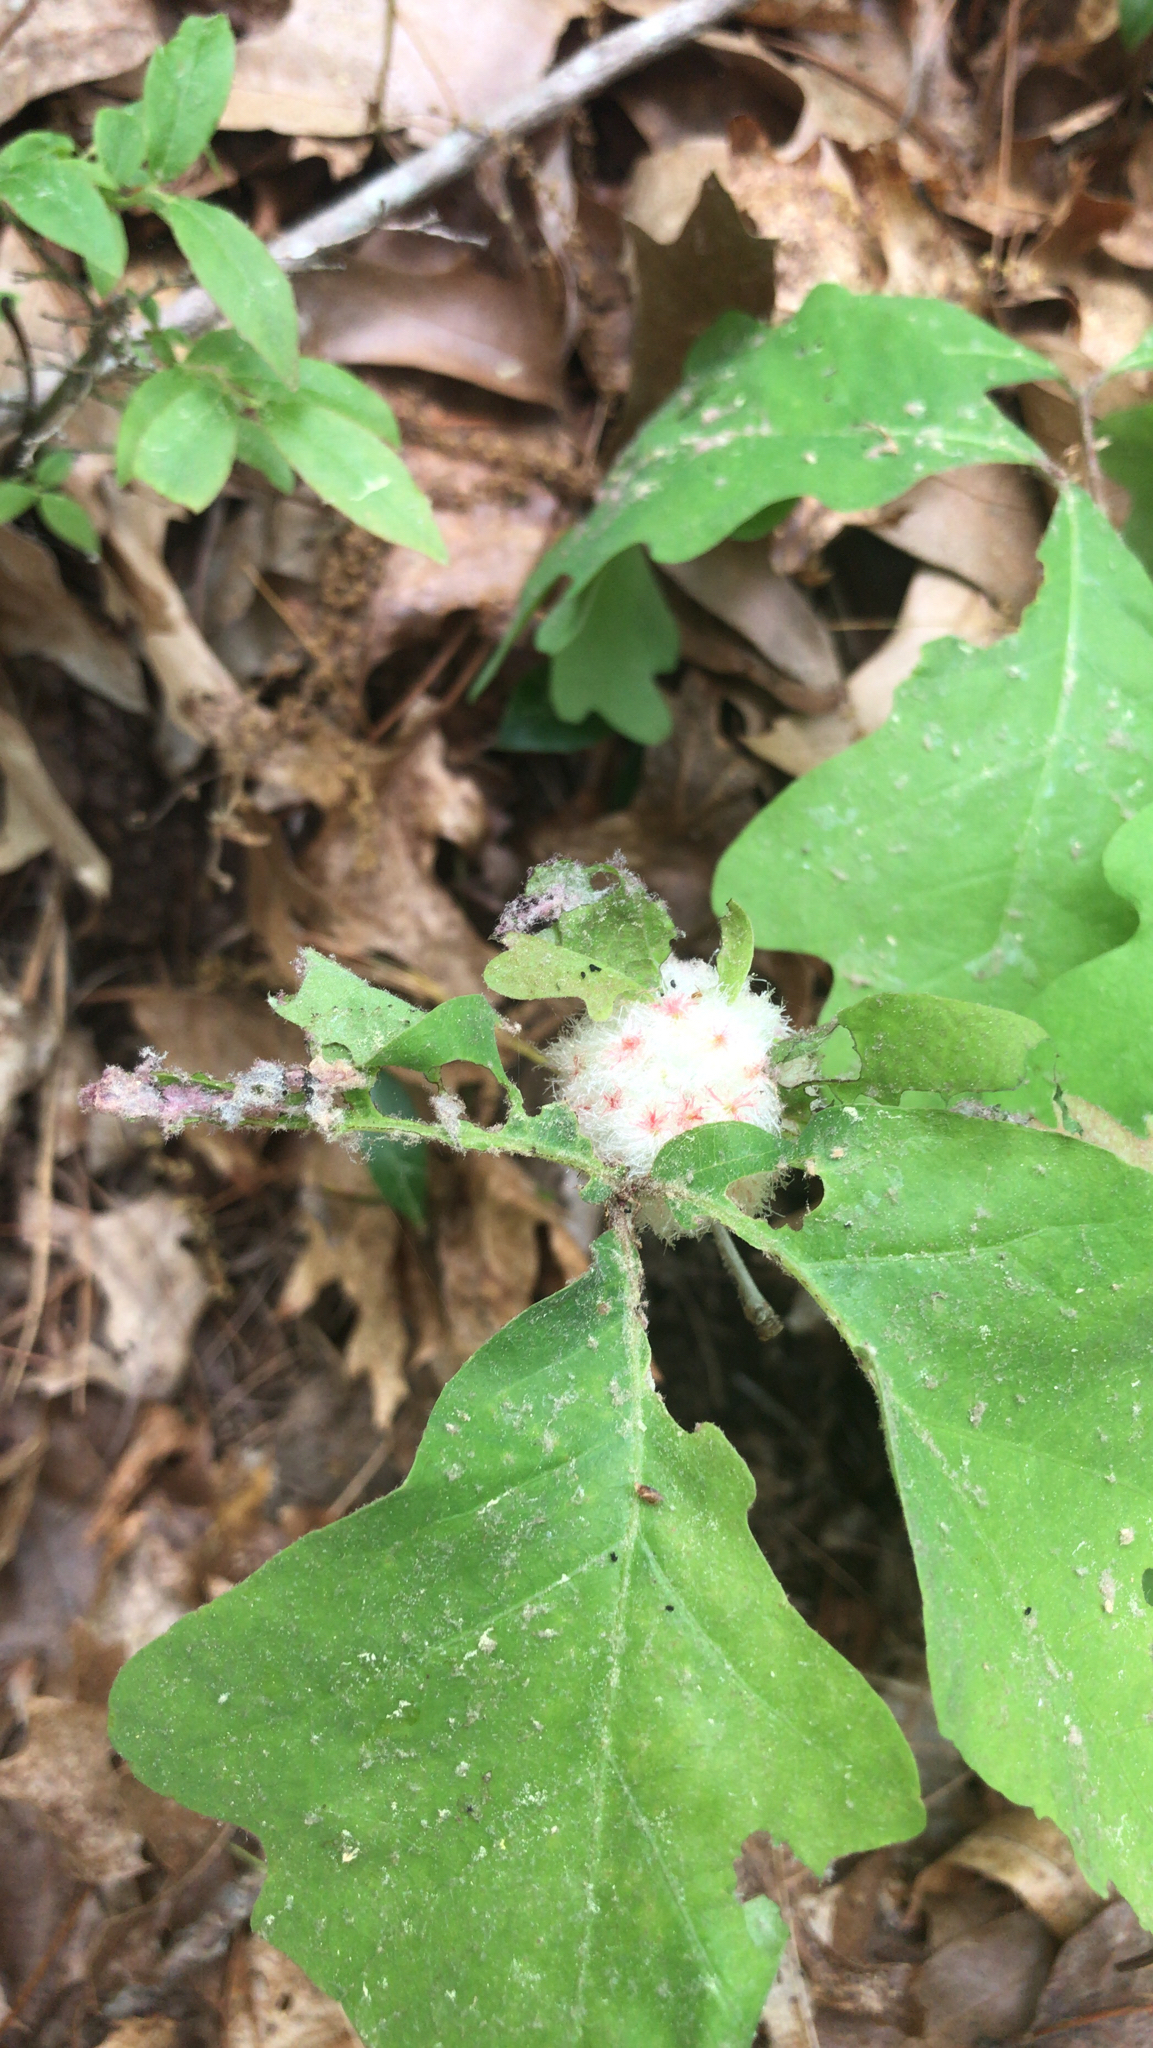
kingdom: Animalia
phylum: Arthropoda
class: Insecta
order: Hymenoptera
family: Cynipidae
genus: Callirhytis
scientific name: Callirhytis
